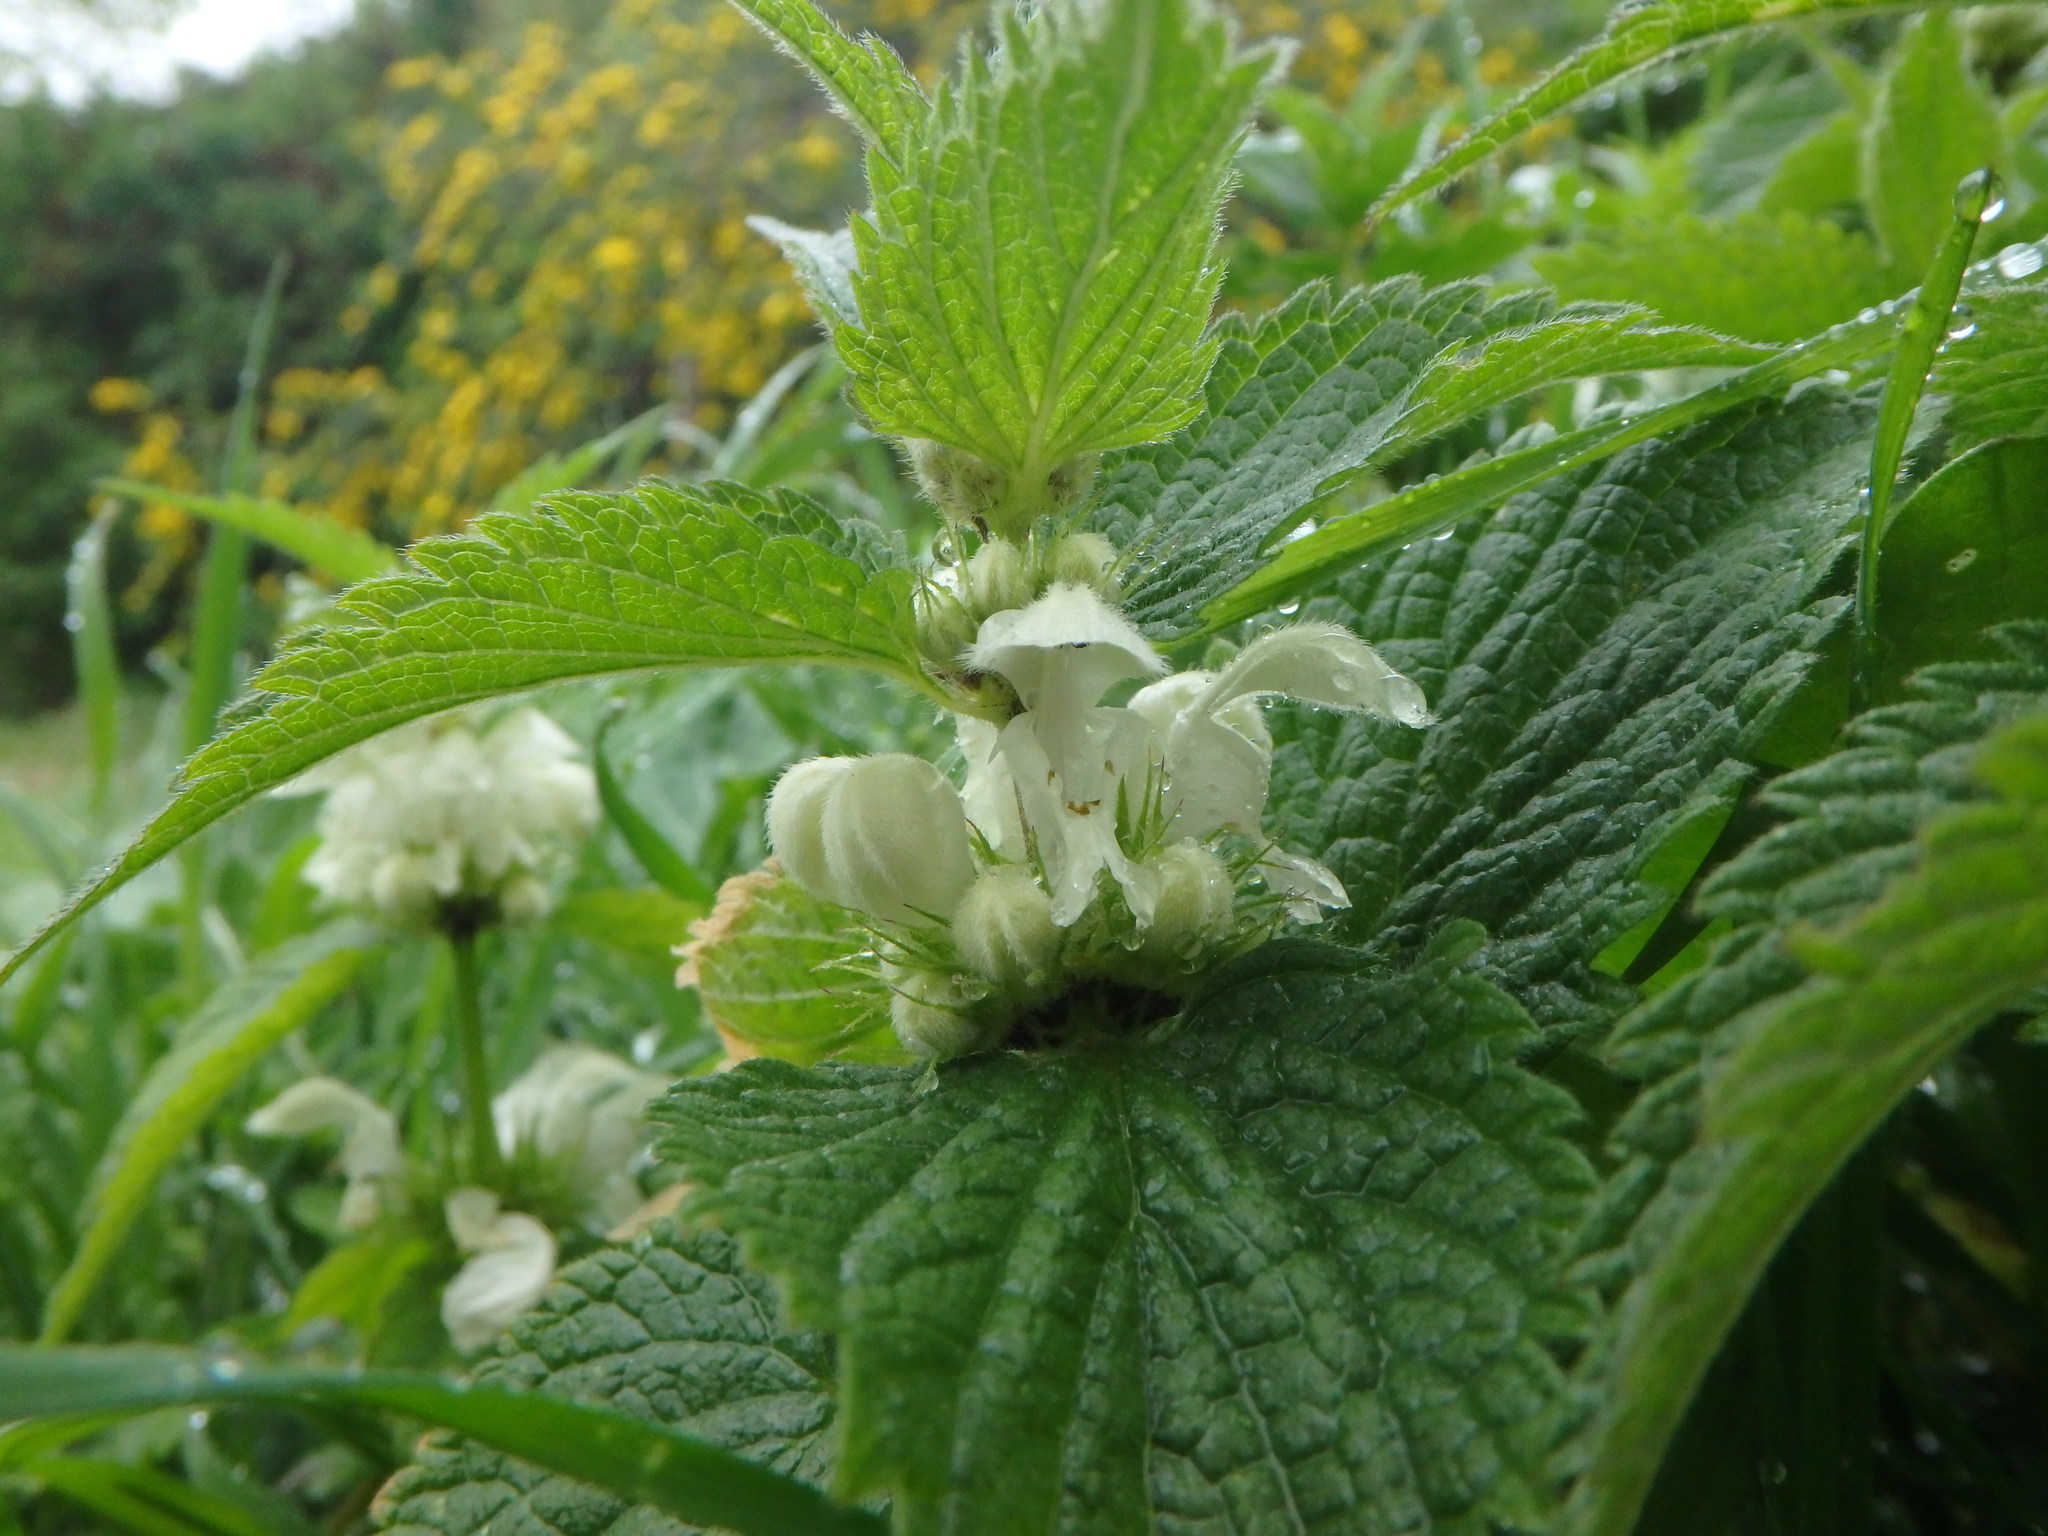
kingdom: Plantae
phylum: Tracheophyta
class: Magnoliopsida
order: Lamiales
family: Lamiaceae
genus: Lamium
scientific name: Lamium album
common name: White dead-nettle
